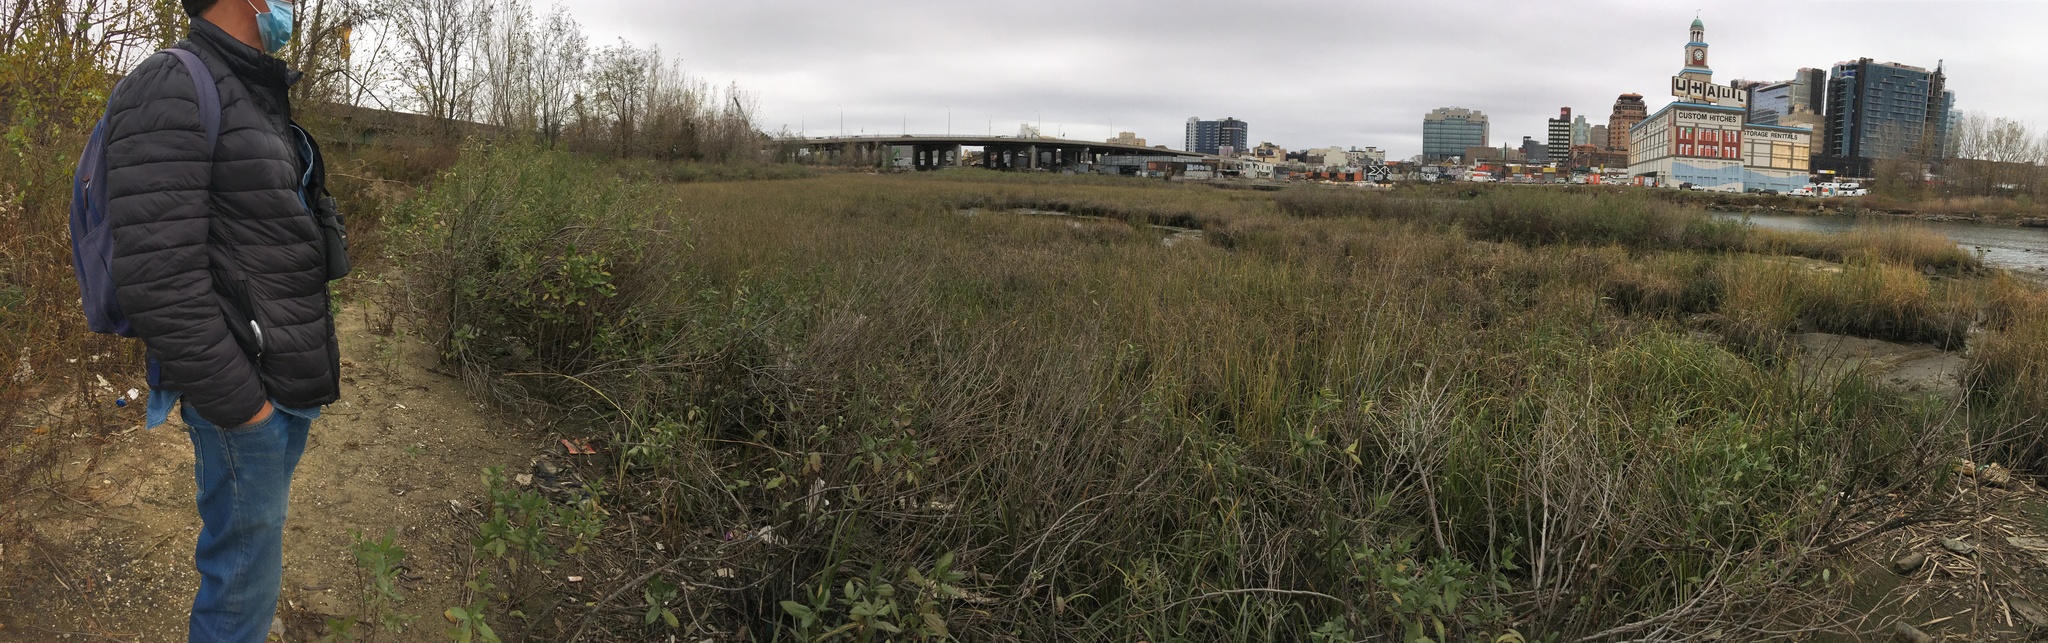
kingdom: Plantae
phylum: Tracheophyta
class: Magnoliopsida
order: Asterales
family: Asteraceae
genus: Iva
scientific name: Iva frutescens
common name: Big-leaved marsh-elder
